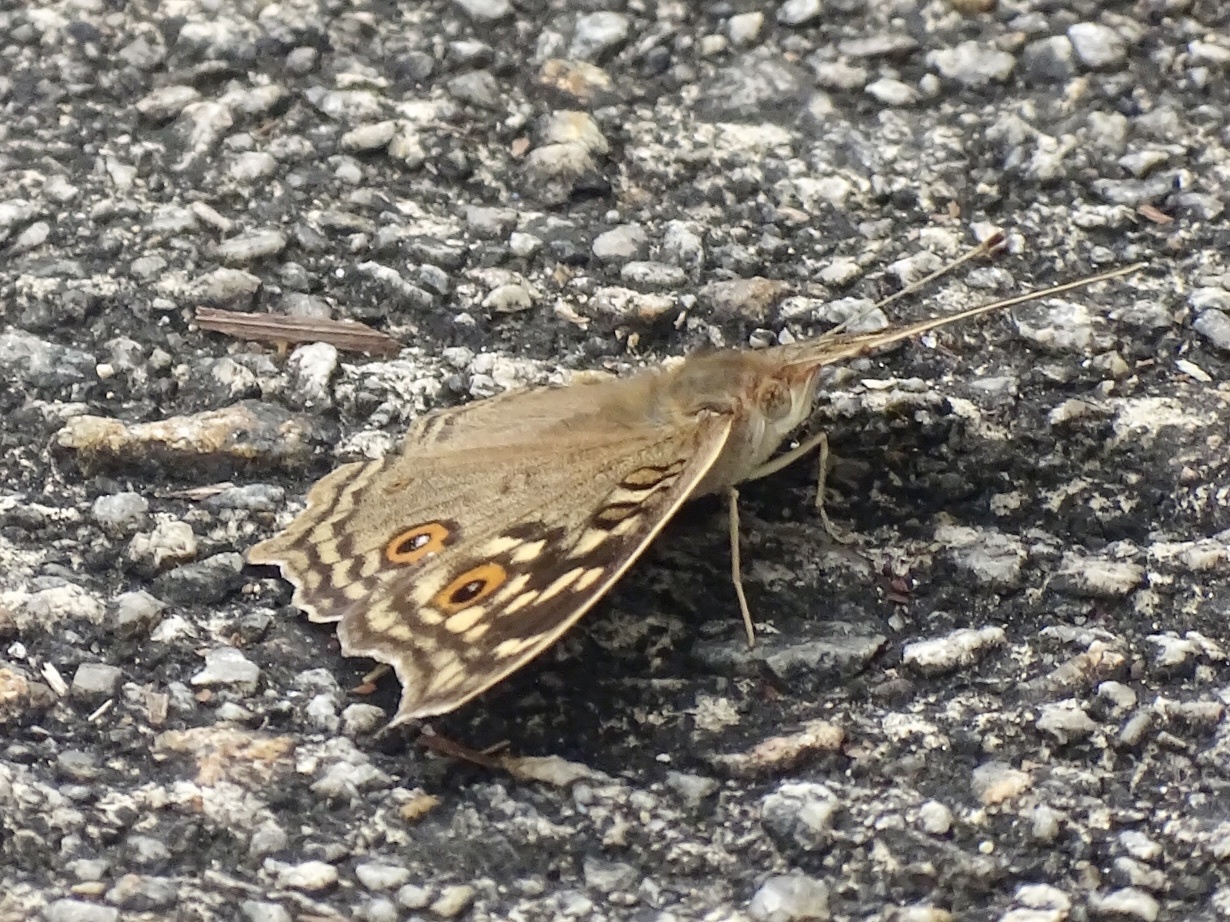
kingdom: Animalia
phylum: Arthropoda
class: Insecta
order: Lepidoptera
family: Nymphalidae
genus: Junonia
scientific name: Junonia lemonias
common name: Lemon pansy
